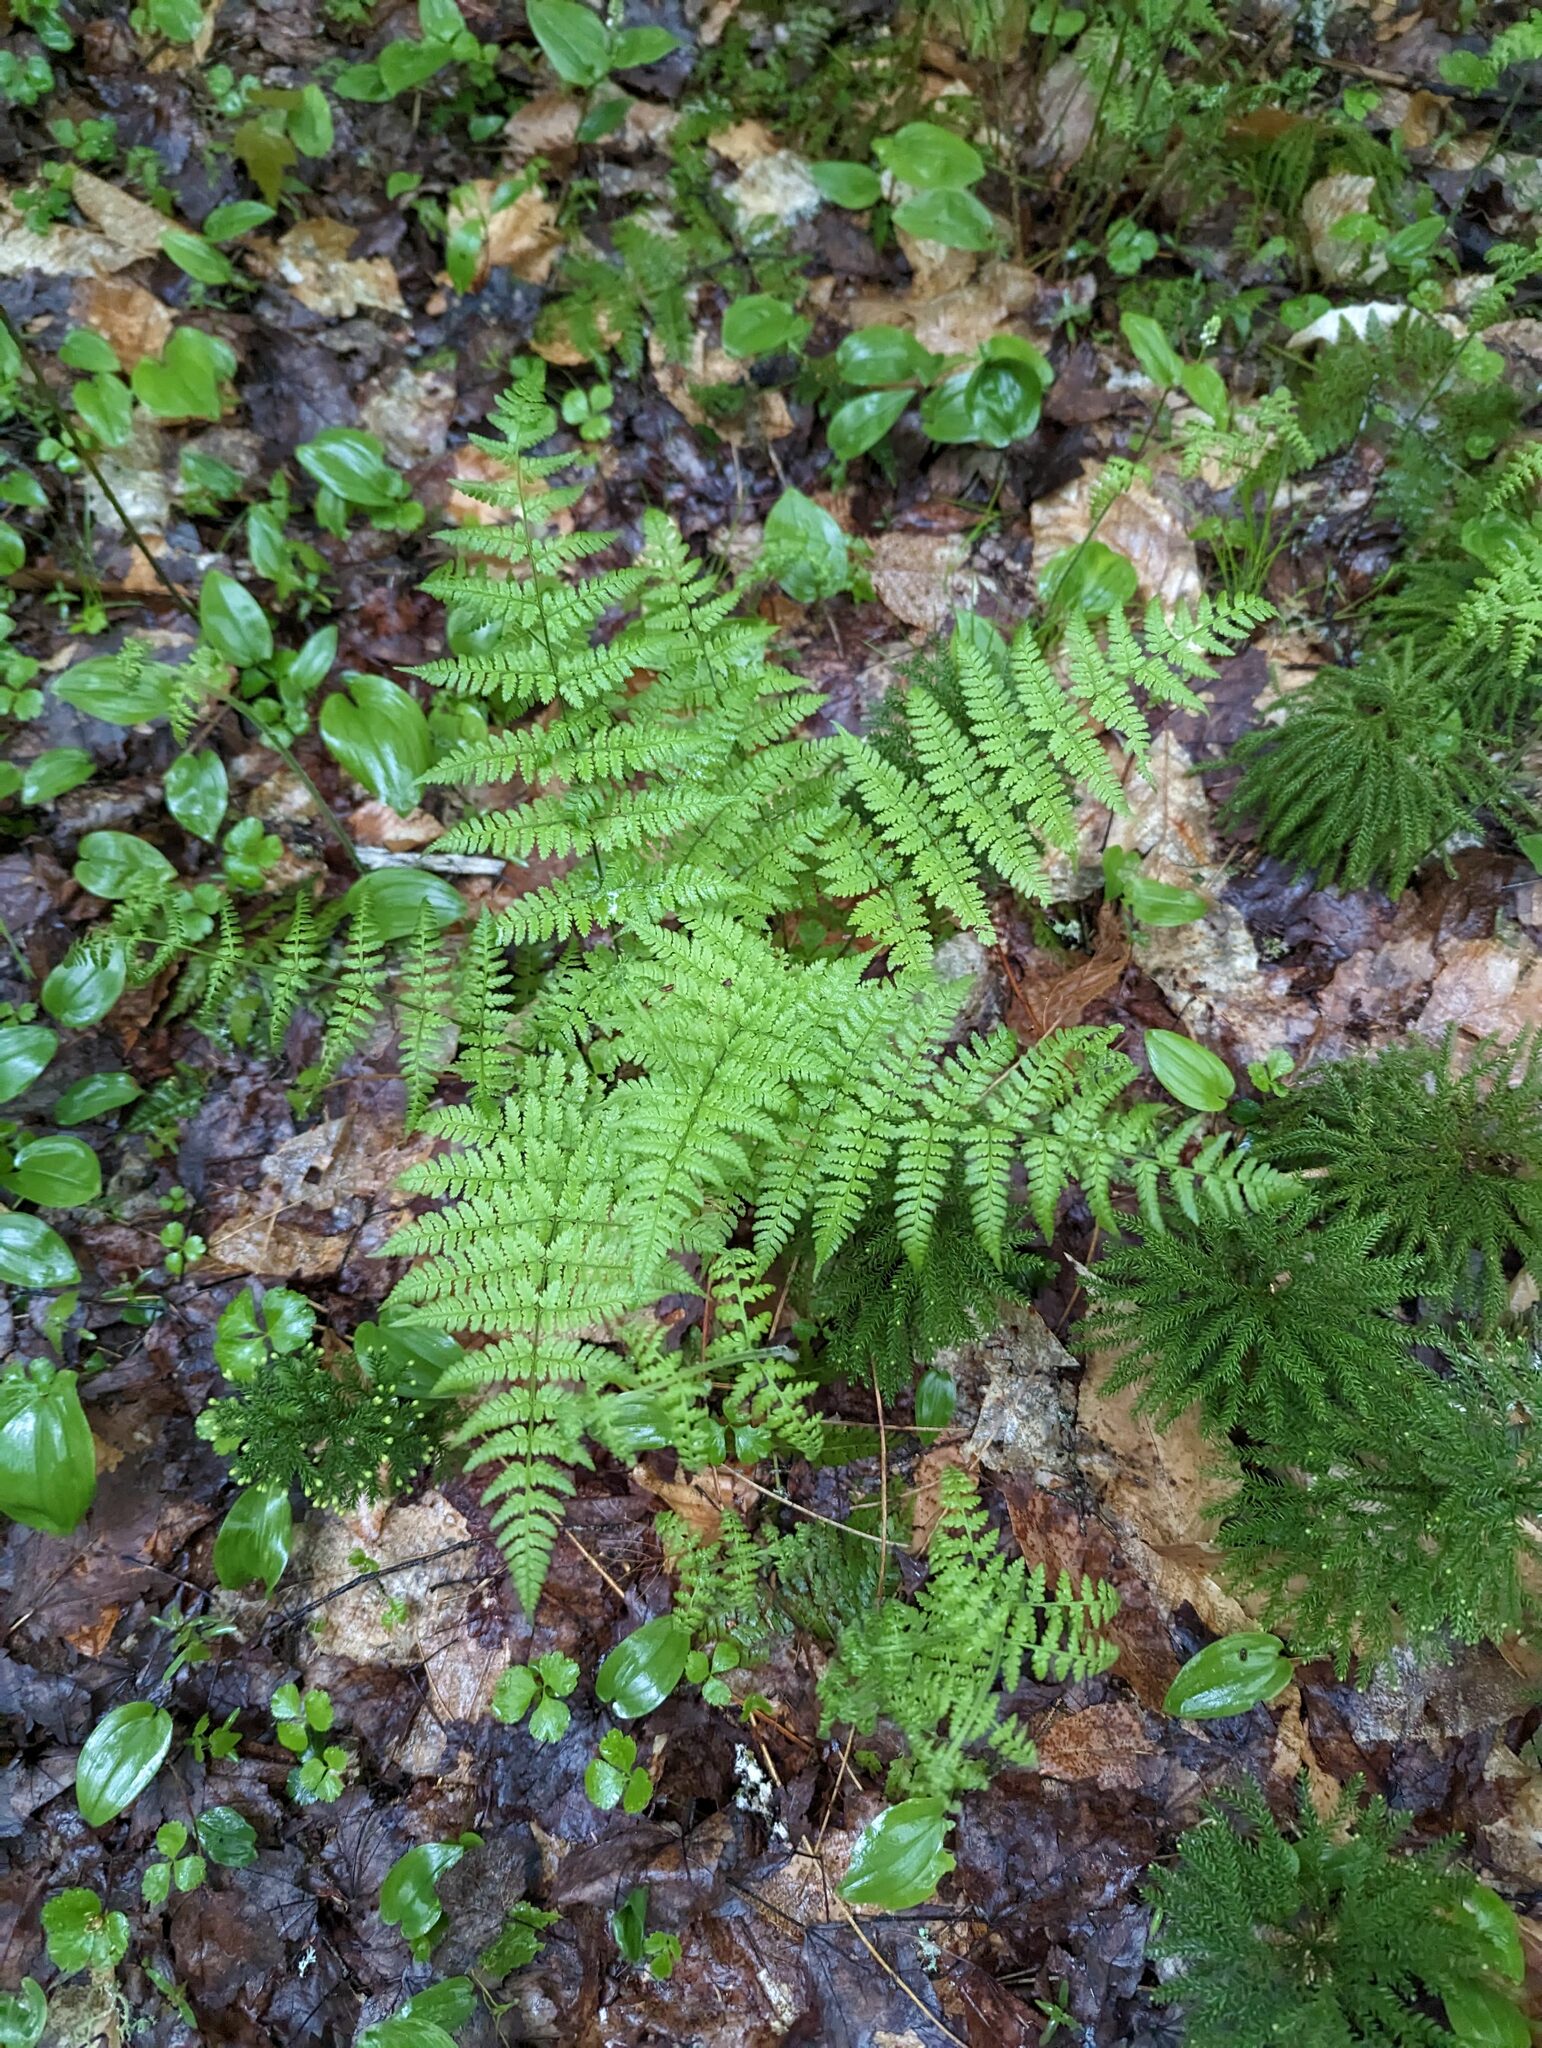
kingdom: Plantae
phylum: Tracheophyta
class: Polypodiopsida
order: Polypodiales
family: Dryopteridaceae
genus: Dryopteris
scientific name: Dryopteris intermedia
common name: Evergreen wood fern
